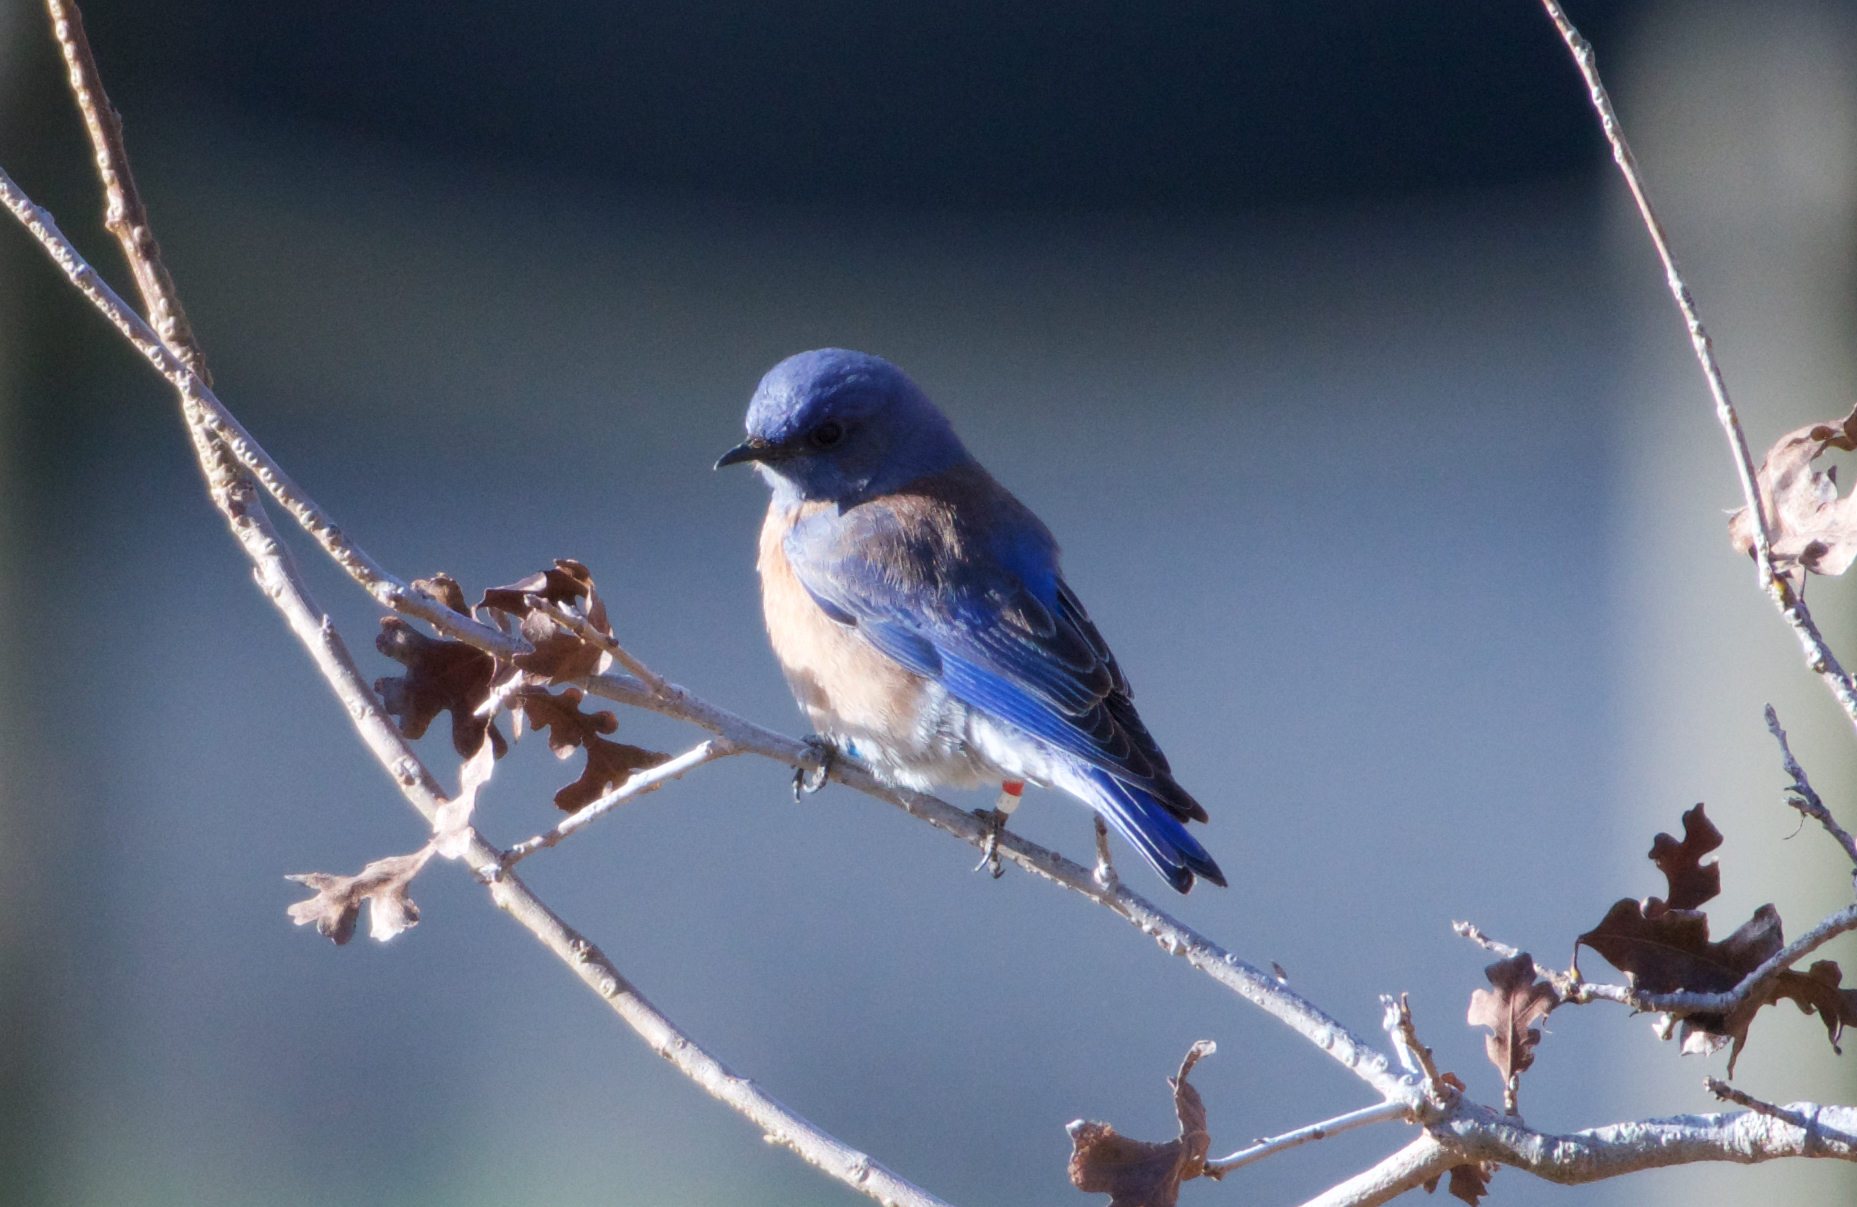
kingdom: Animalia
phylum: Chordata
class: Aves
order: Passeriformes
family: Turdidae
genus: Sialia
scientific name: Sialia mexicana
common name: Western bluebird
